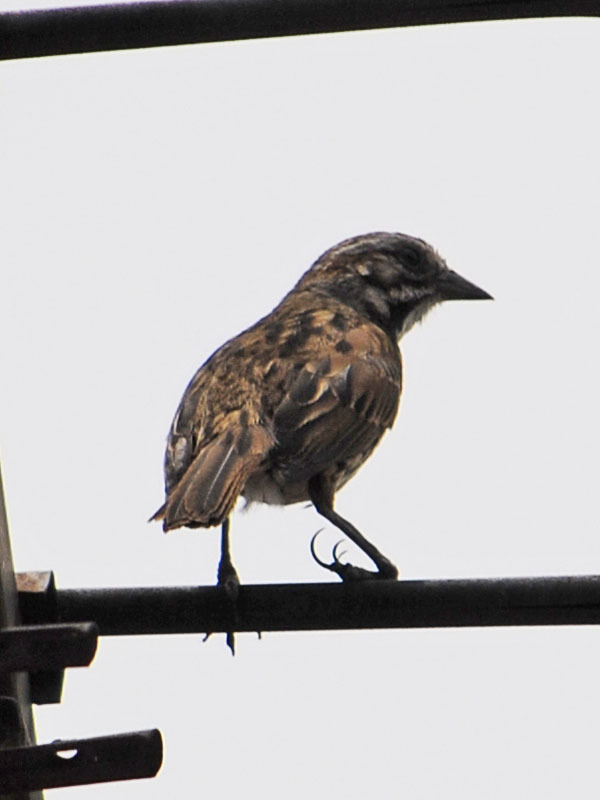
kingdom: Animalia
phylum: Chordata
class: Aves
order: Passeriformes
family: Passerellidae
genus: Melospiza
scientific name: Melospiza melodia
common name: Song sparrow
